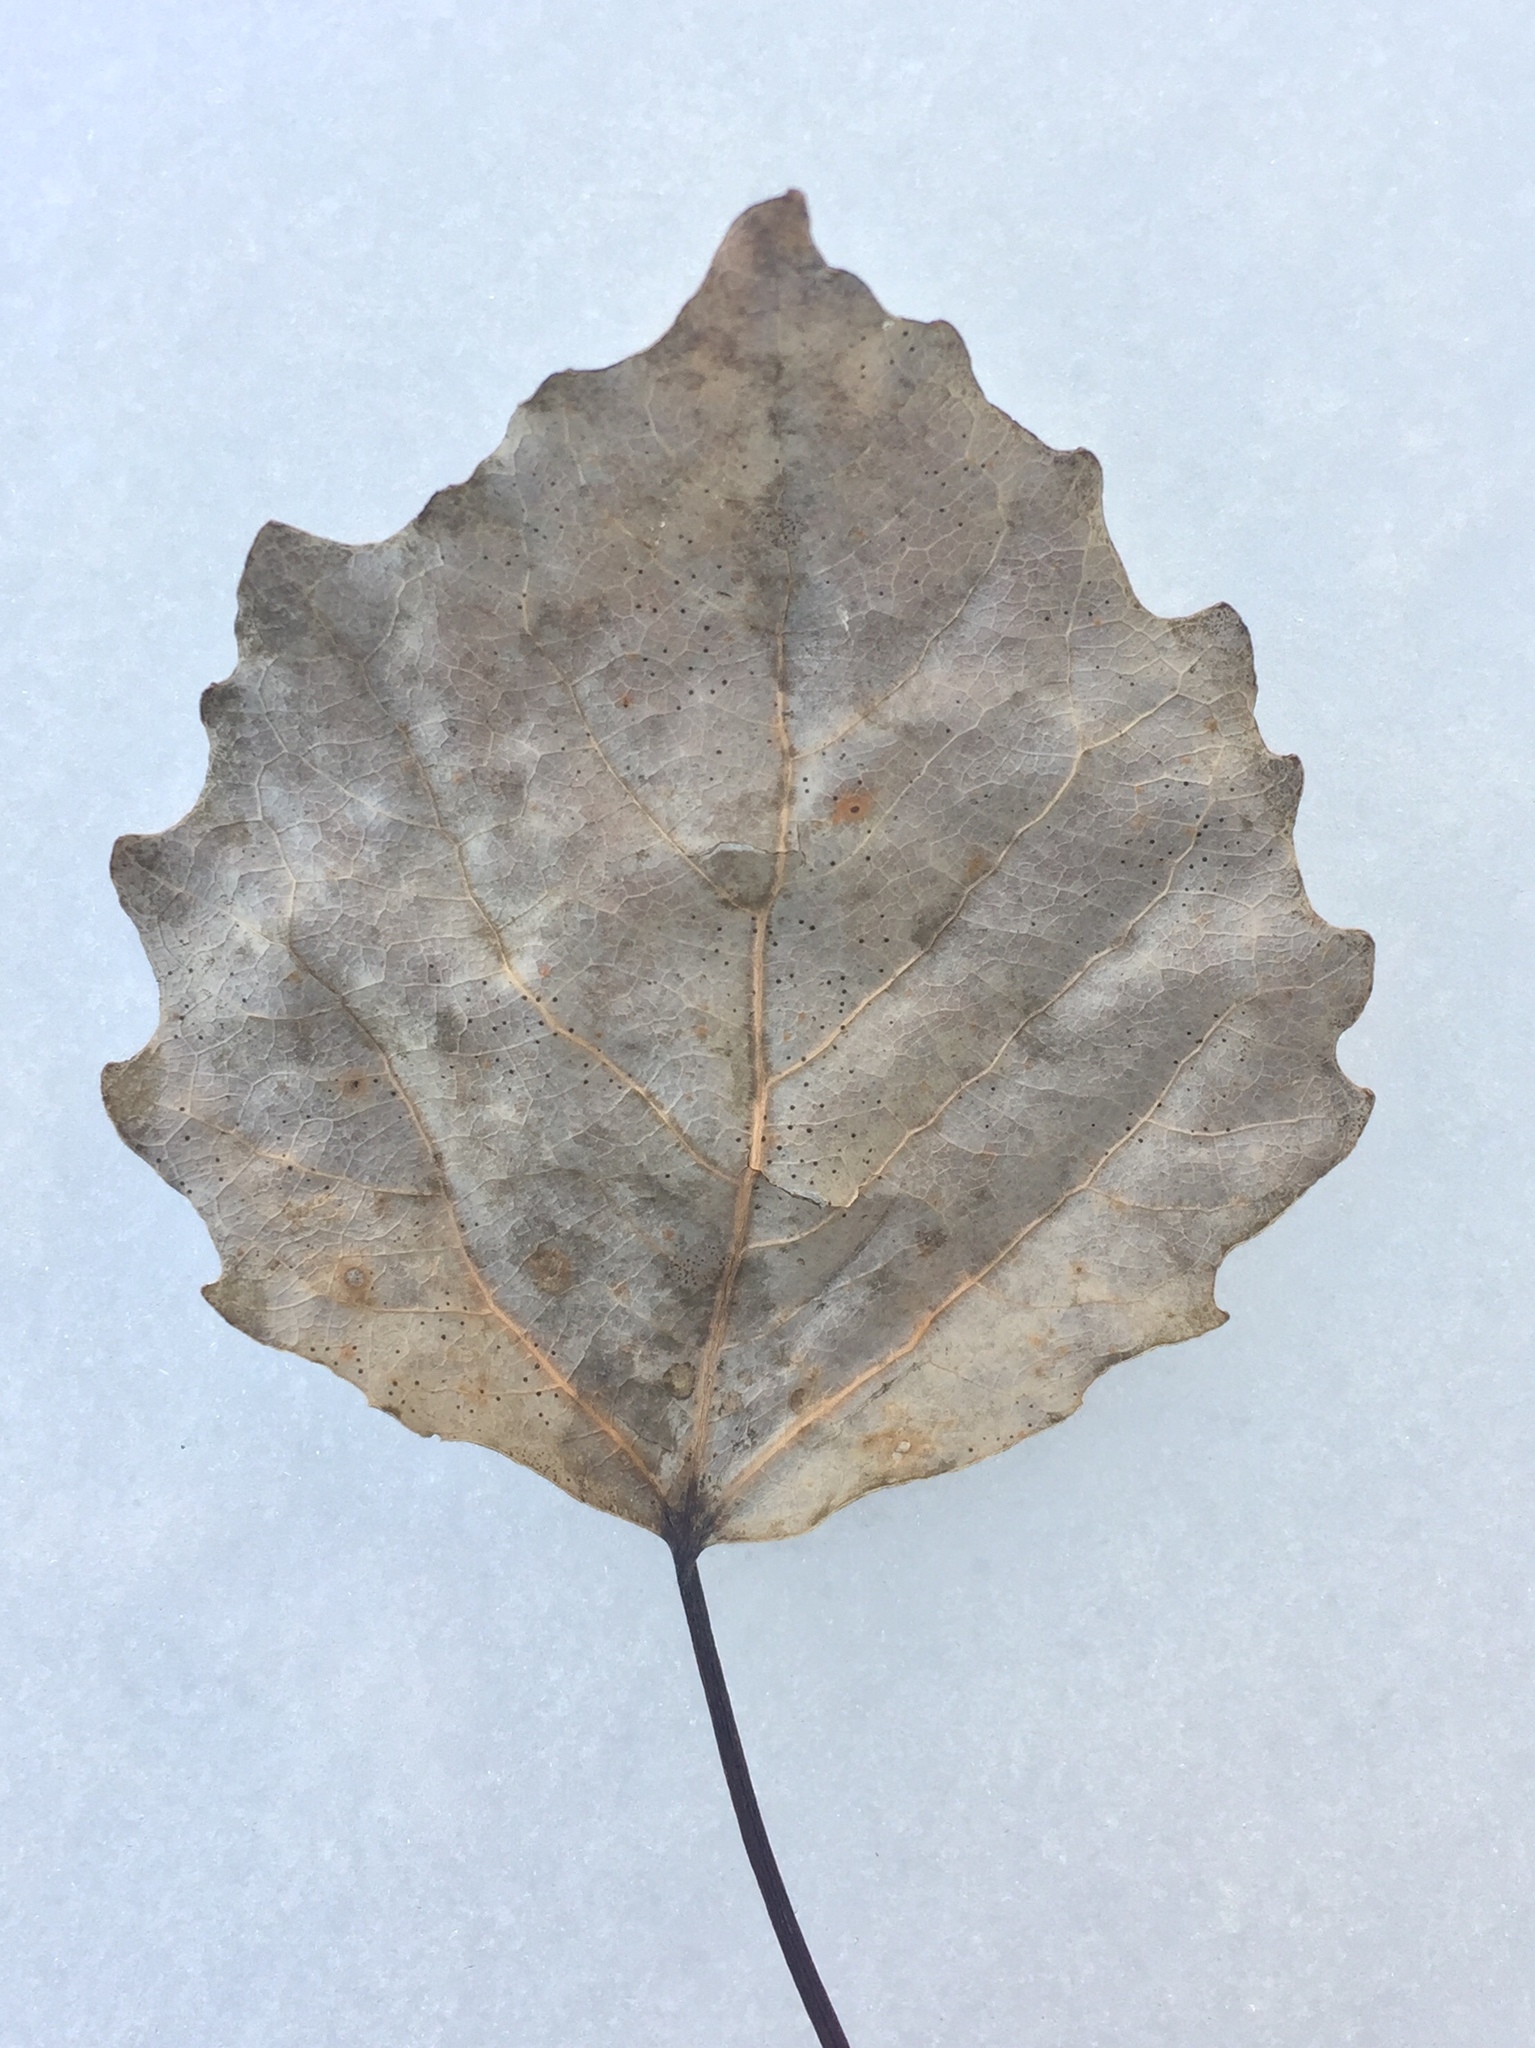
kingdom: Plantae
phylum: Tracheophyta
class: Magnoliopsida
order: Malpighiales
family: Salicaceae
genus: Populus
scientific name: Populus grandidentata
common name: Bigtooth aspen
